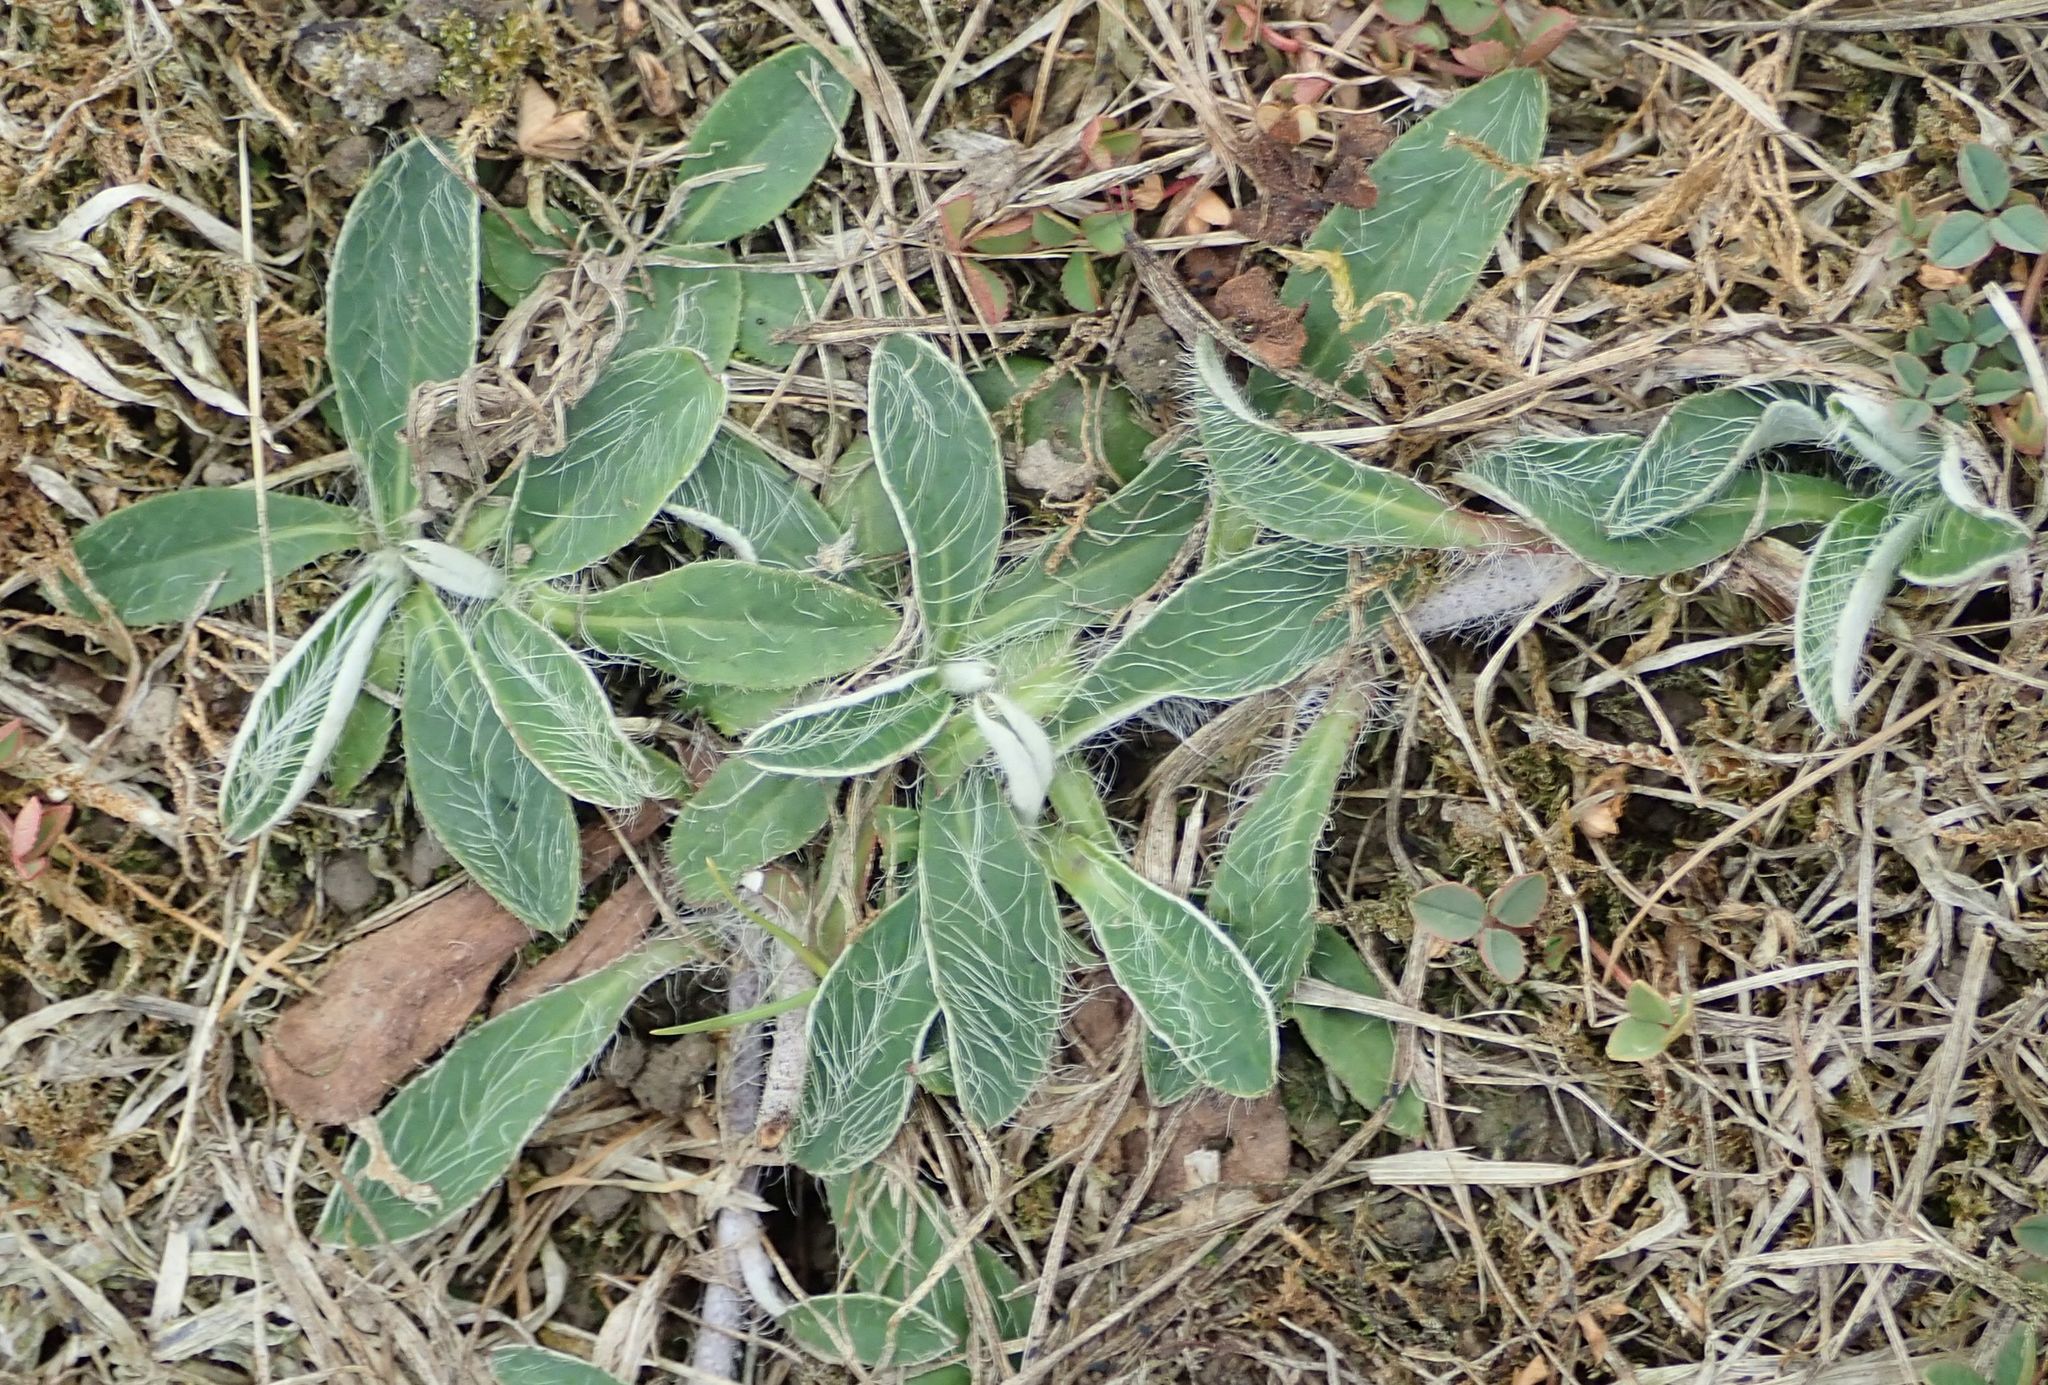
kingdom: Plantae
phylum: Tracheophyta
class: Magnoliopsida
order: Asterales
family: Asteraceae
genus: Pilosella
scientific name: Pilosella officinarum
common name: Mouse-ear hawkweed
